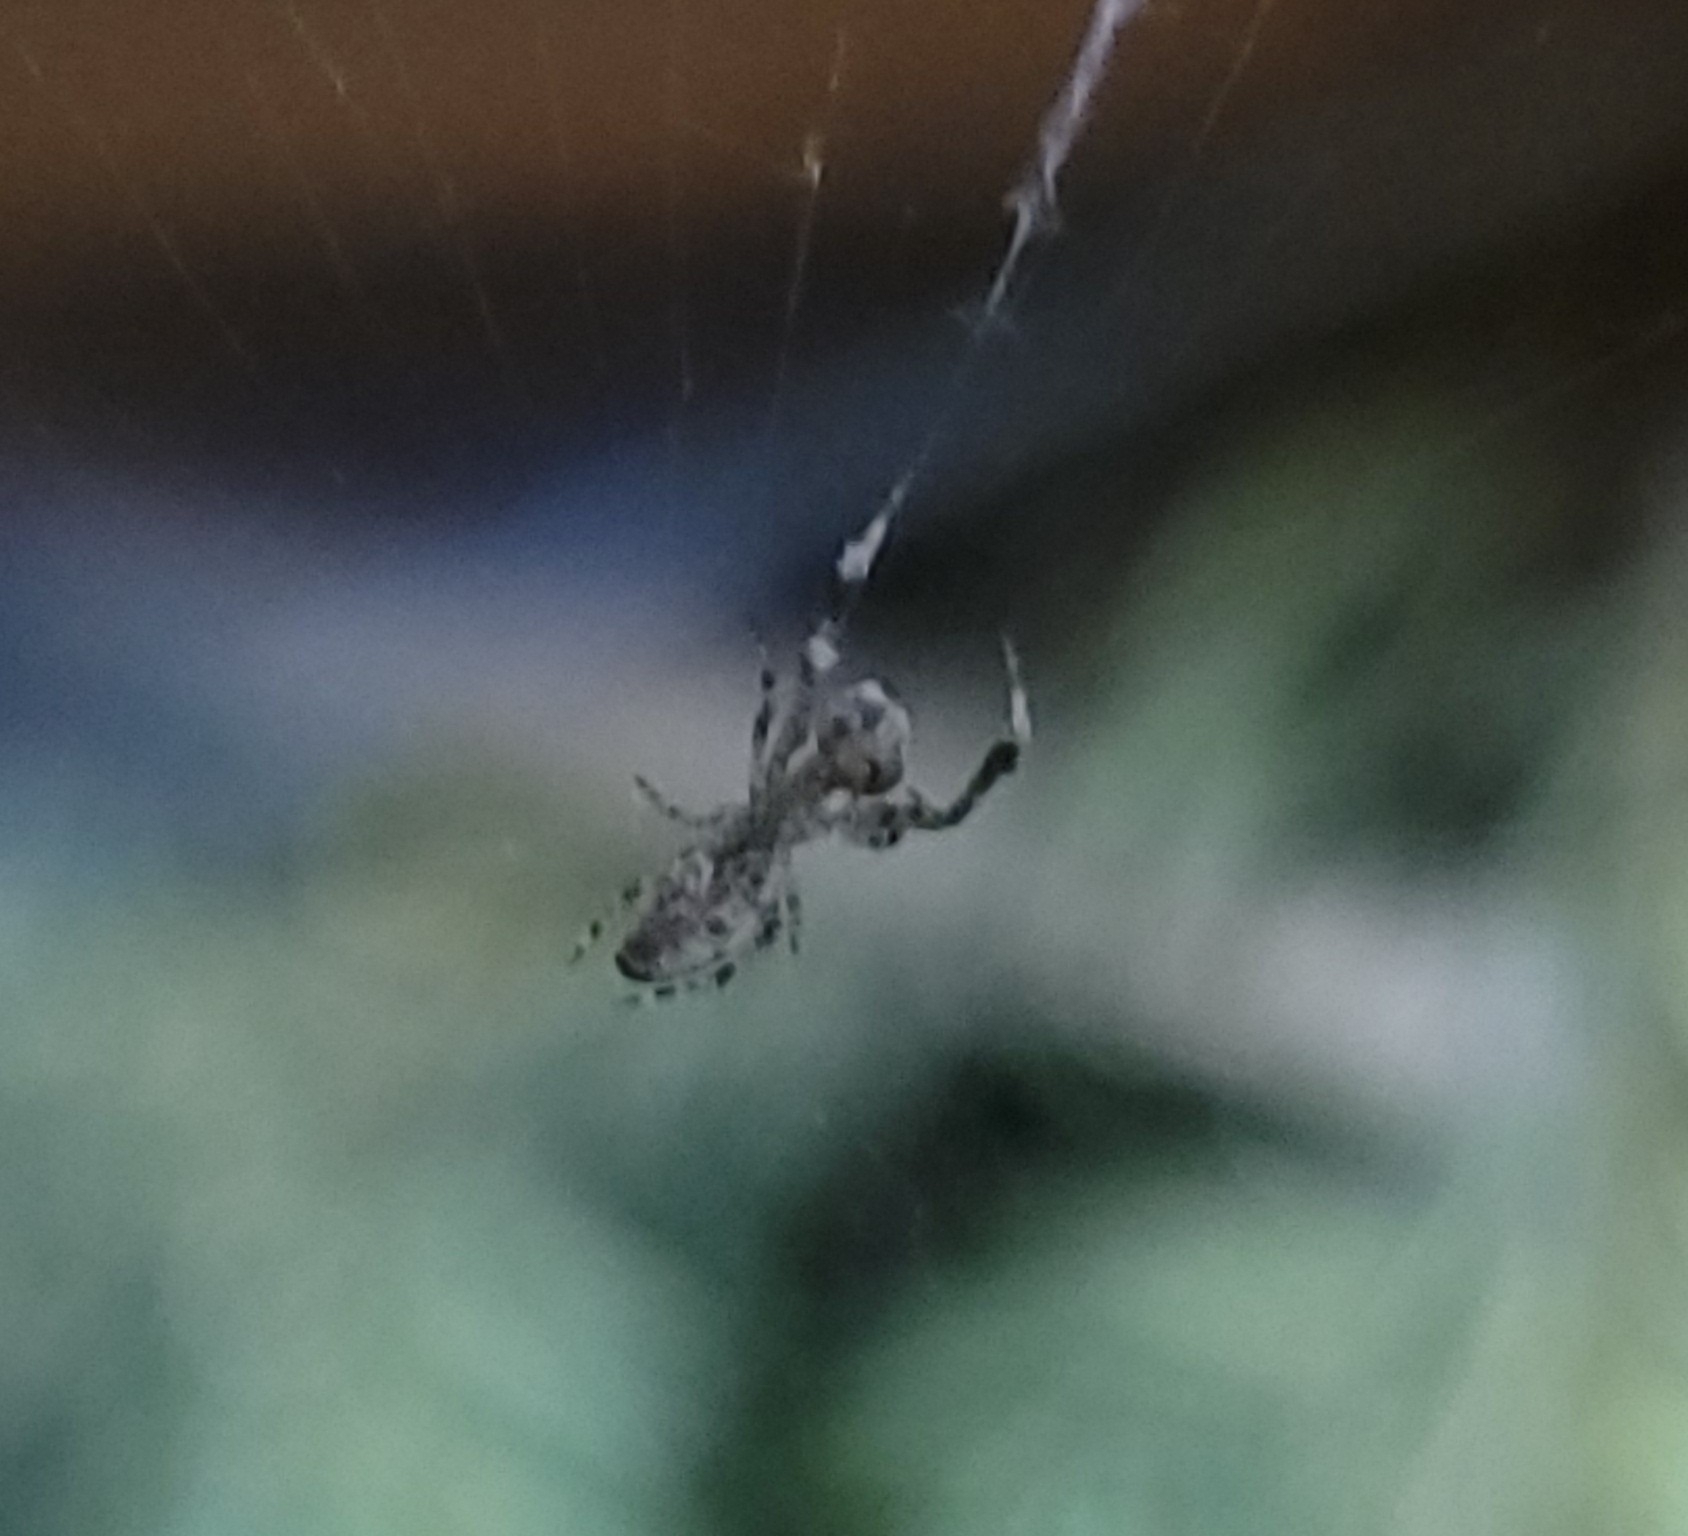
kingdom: Animalia
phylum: Arthropoda
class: Arachnida
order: Araneae
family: Uloboridae
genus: Uloborus
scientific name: Uloborus glomosus
